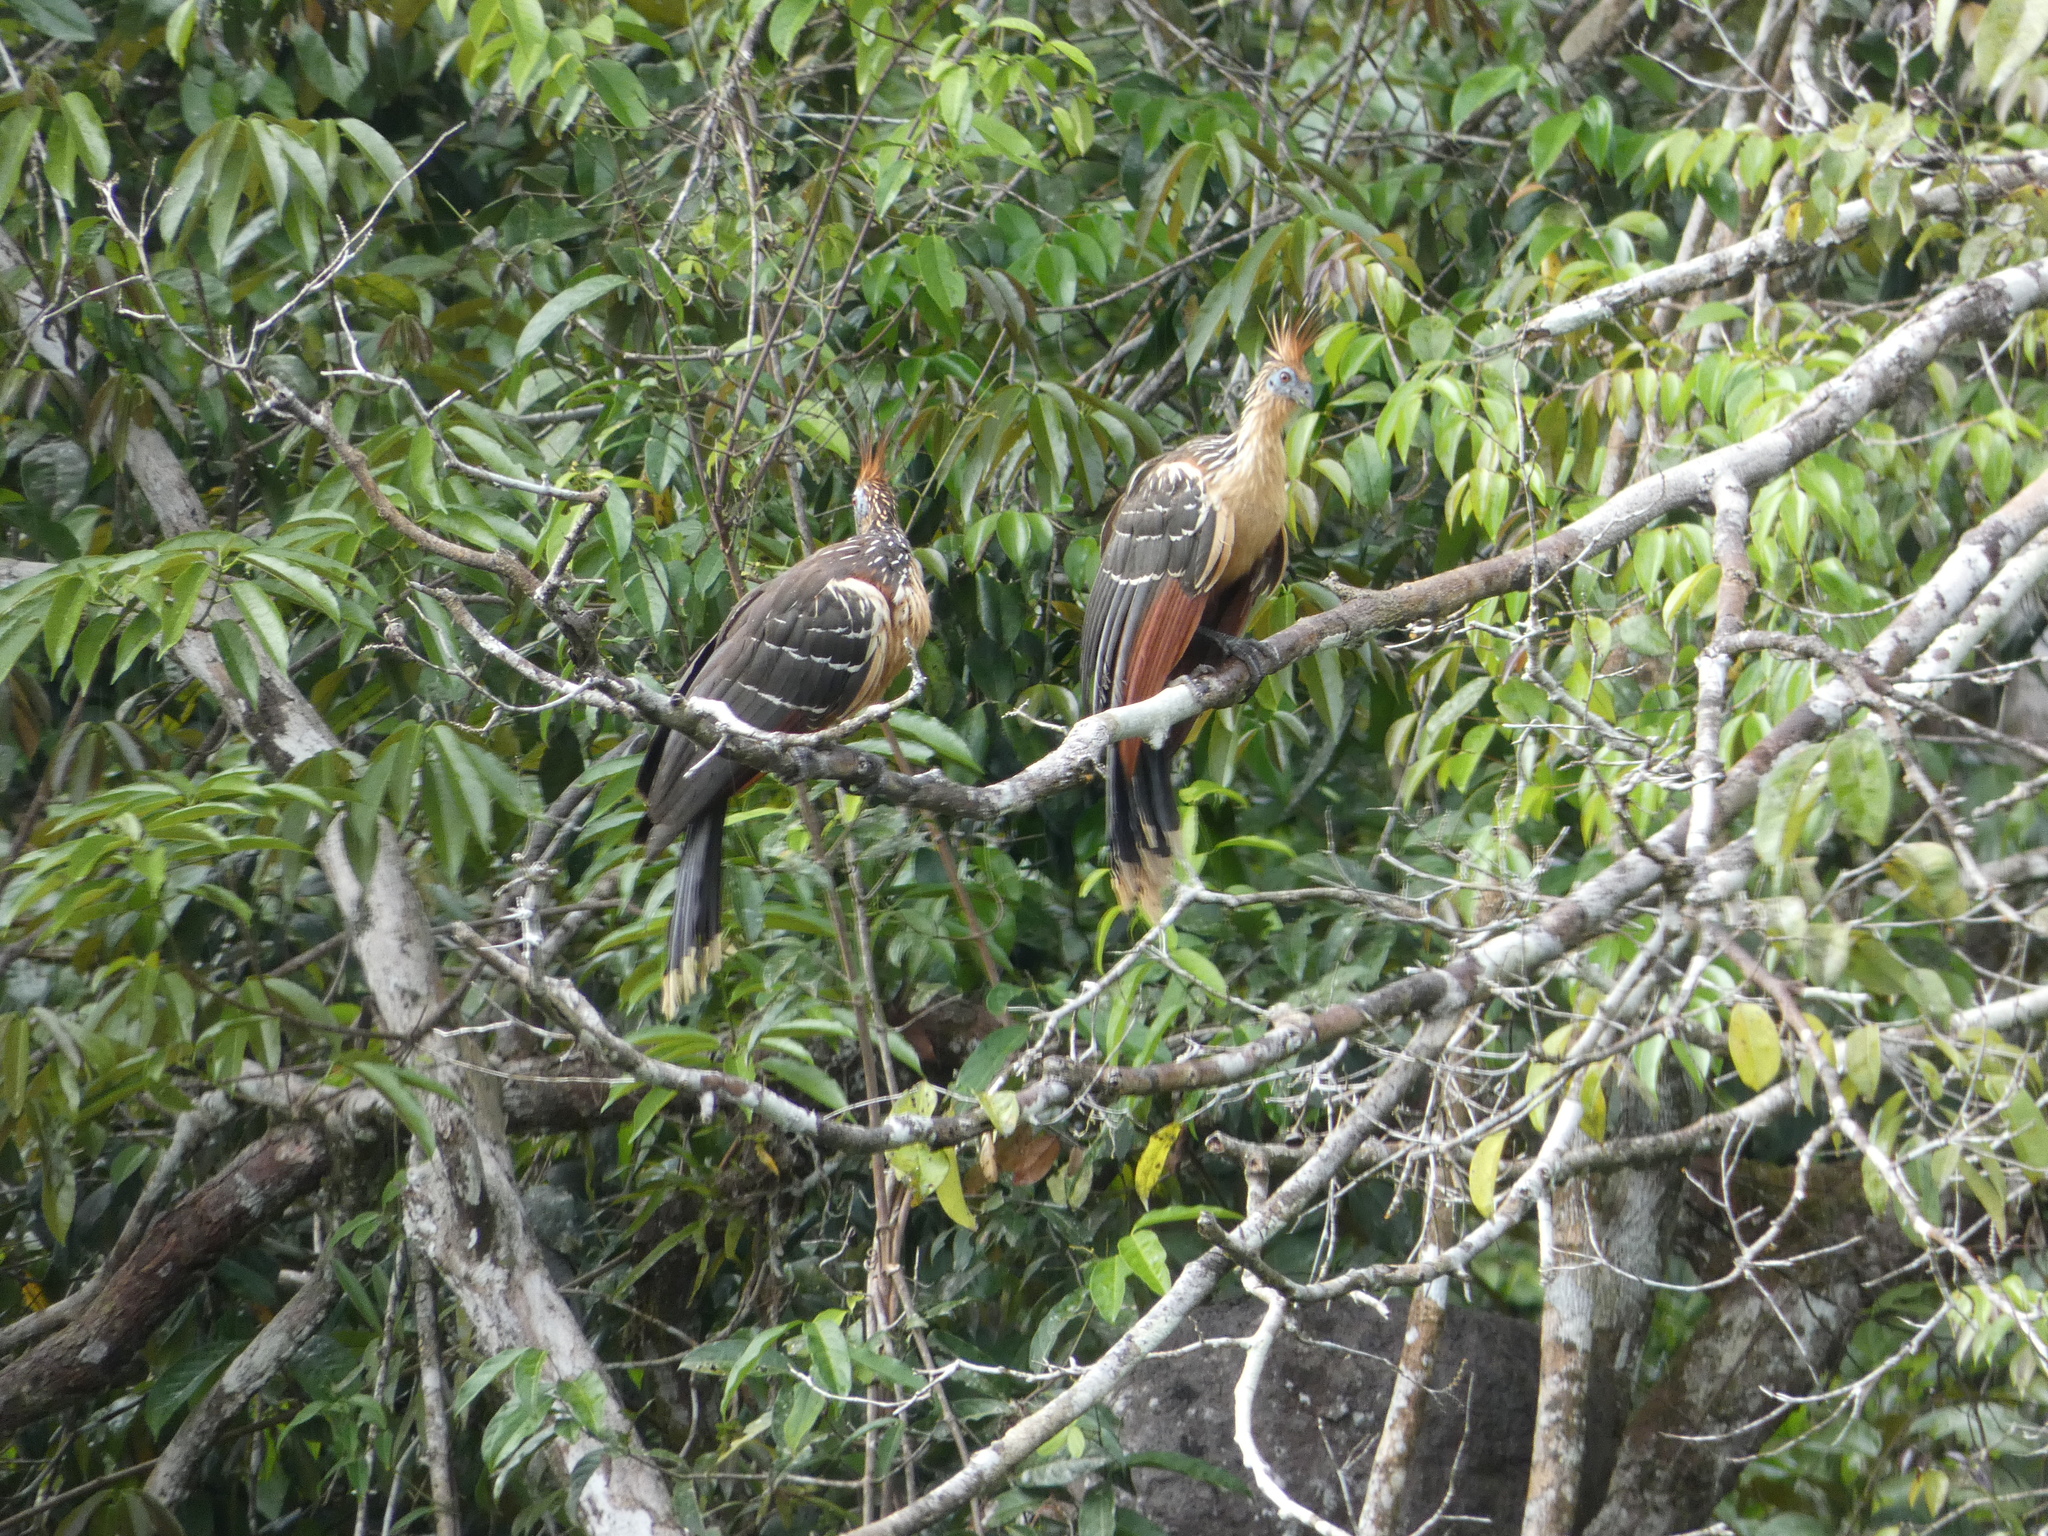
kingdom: Animalia
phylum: Chordata
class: Aves
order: Opisthocomiformes
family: Opisthocomidae
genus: Opisthocomus
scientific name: Opisthocomus hoazin
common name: Hoatzin
